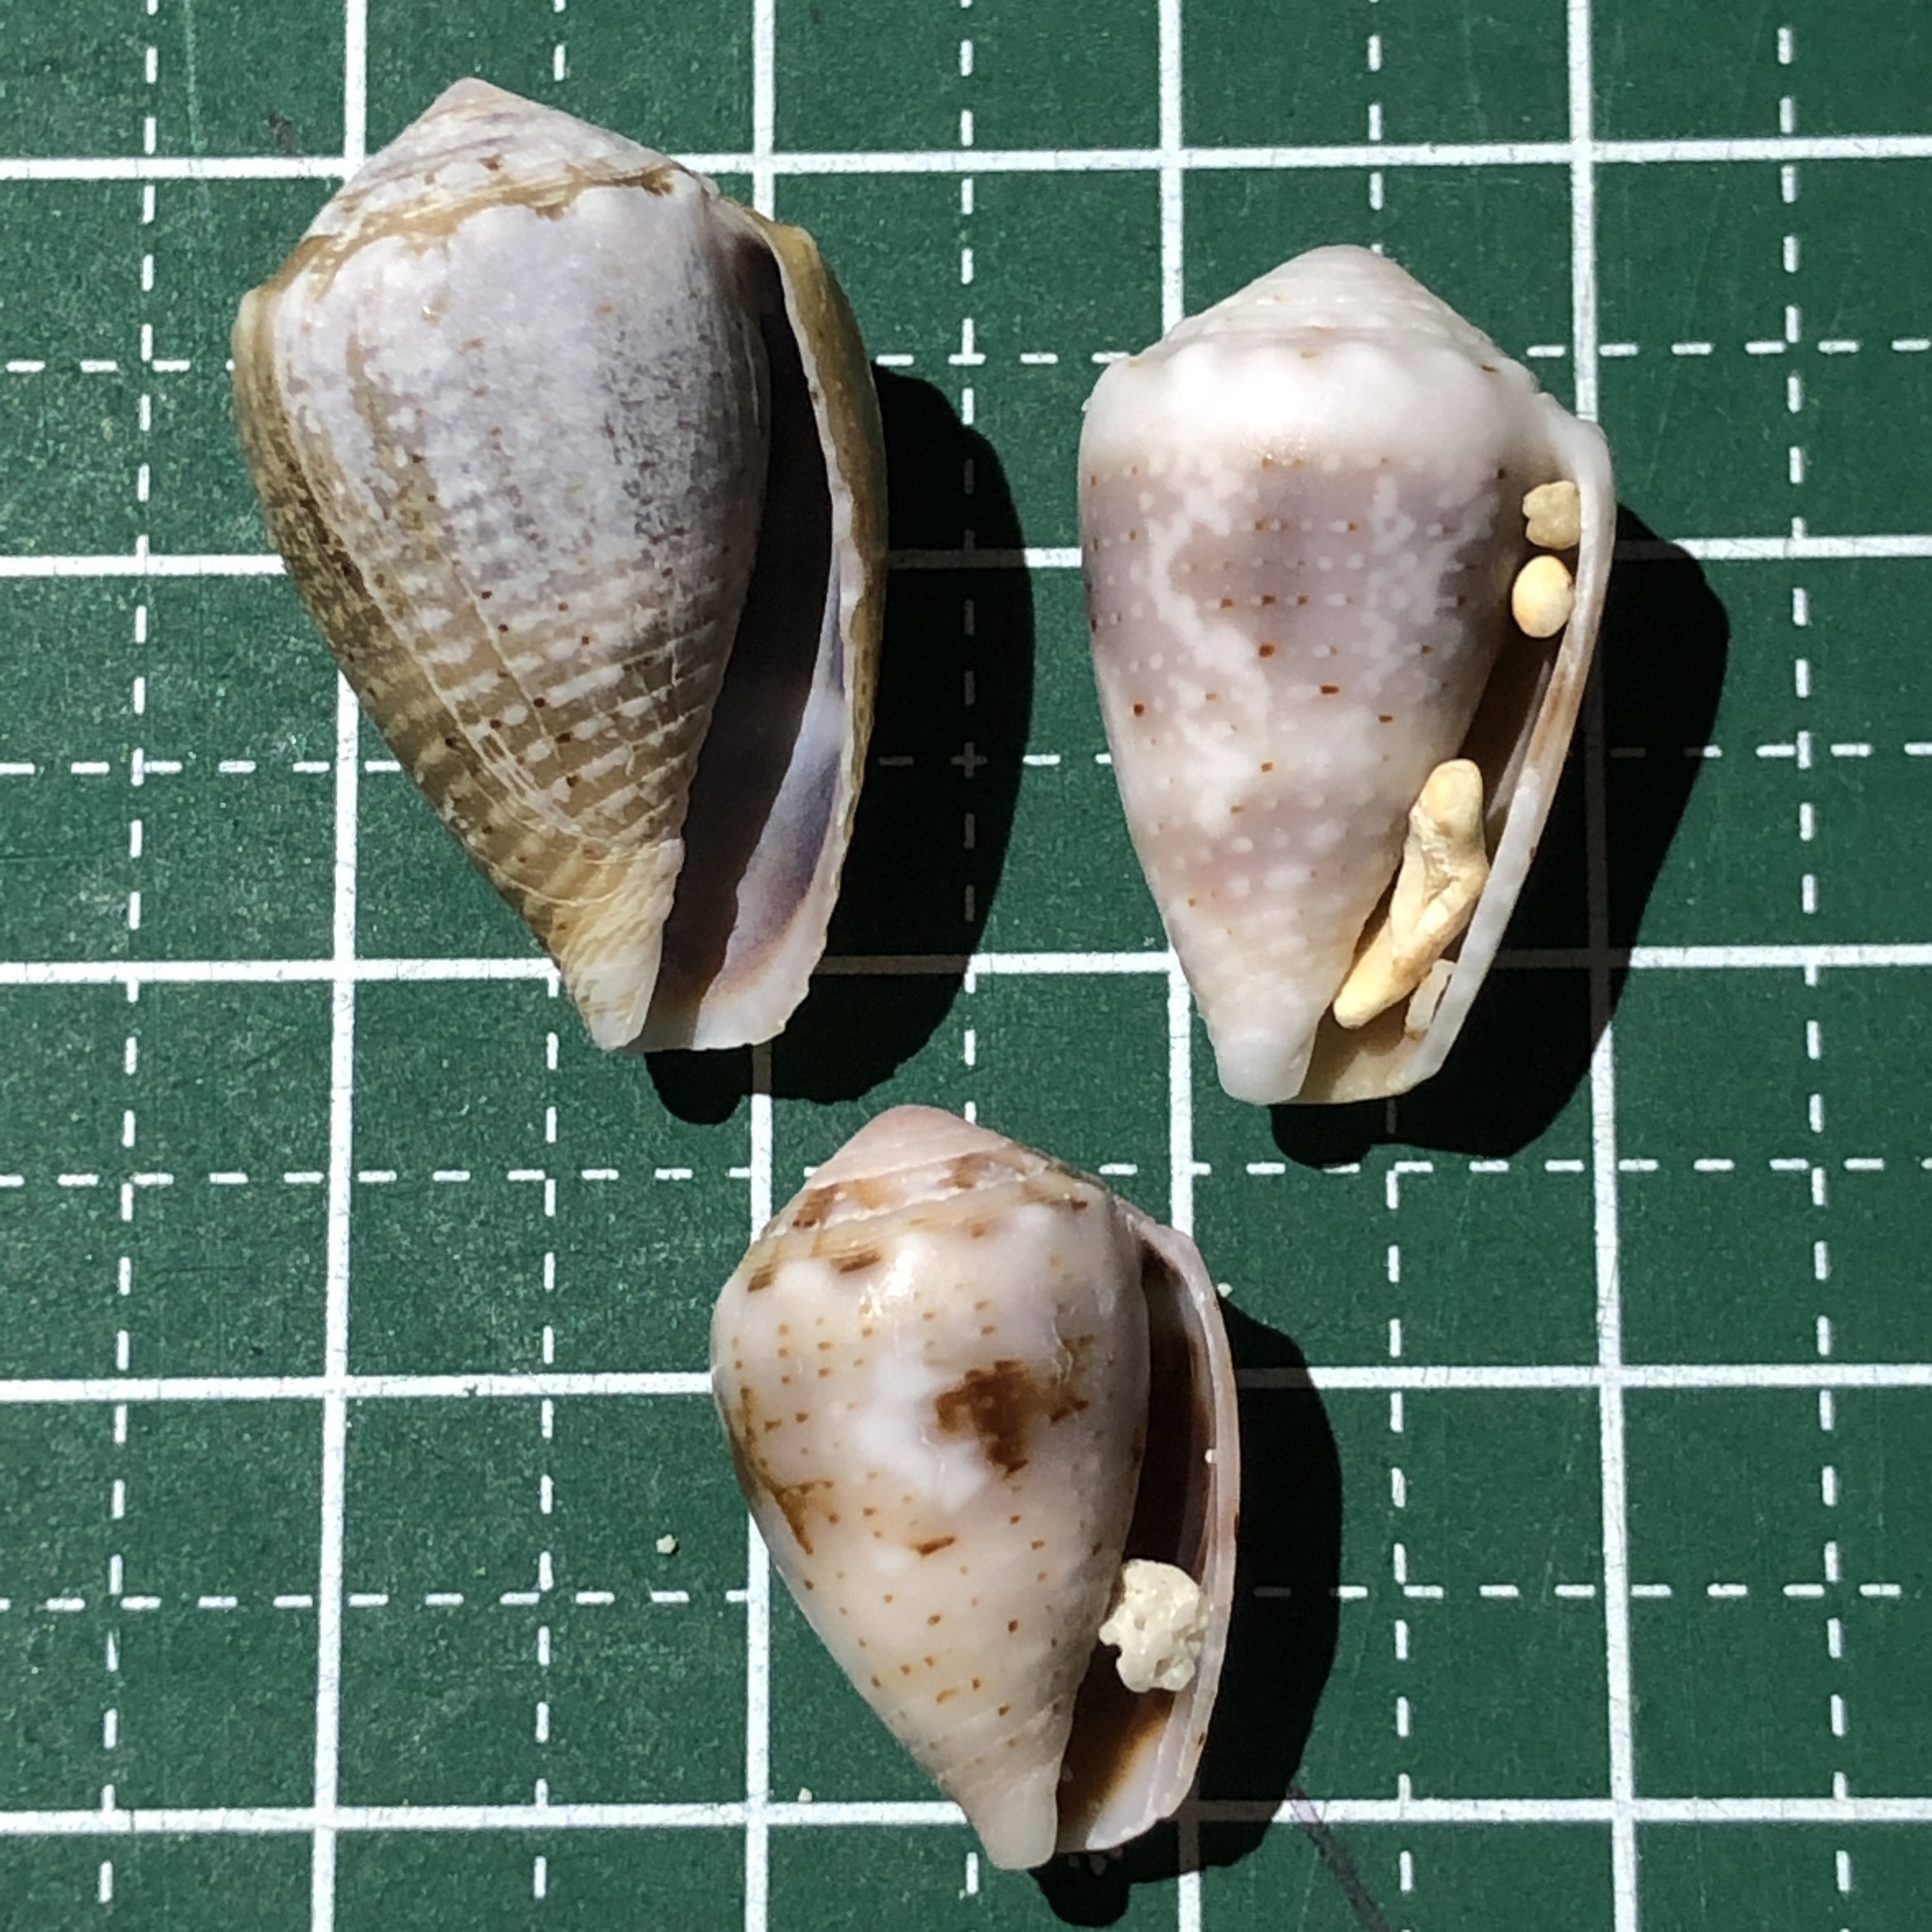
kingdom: Animalia
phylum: Mollusca
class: Gastropoda
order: Neogastropoda
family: Conidae
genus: Conus
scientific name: Conus coronatus
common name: Coronated cone
